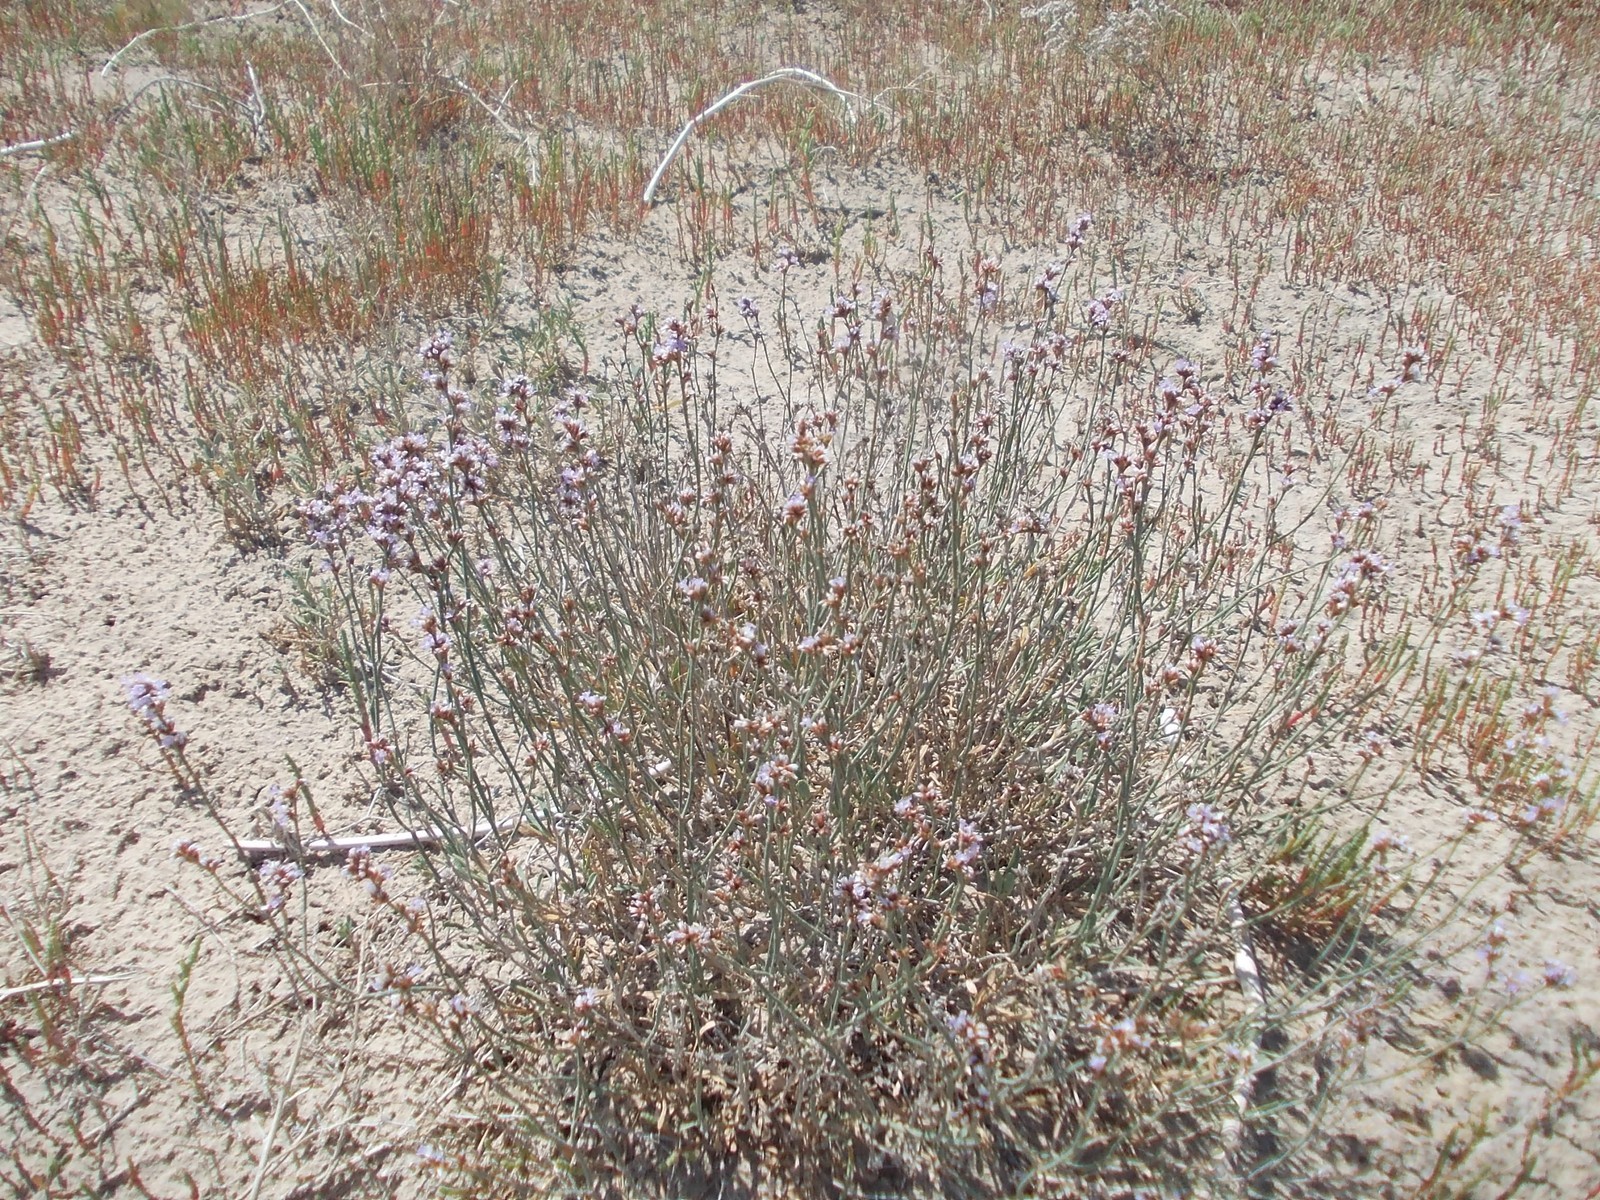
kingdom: Plantae
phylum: Tracheophyta
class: Magnoliopsida
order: Caryophyllales
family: Plumbaginaceae
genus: Limonium
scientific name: Limonium suffruticosum
